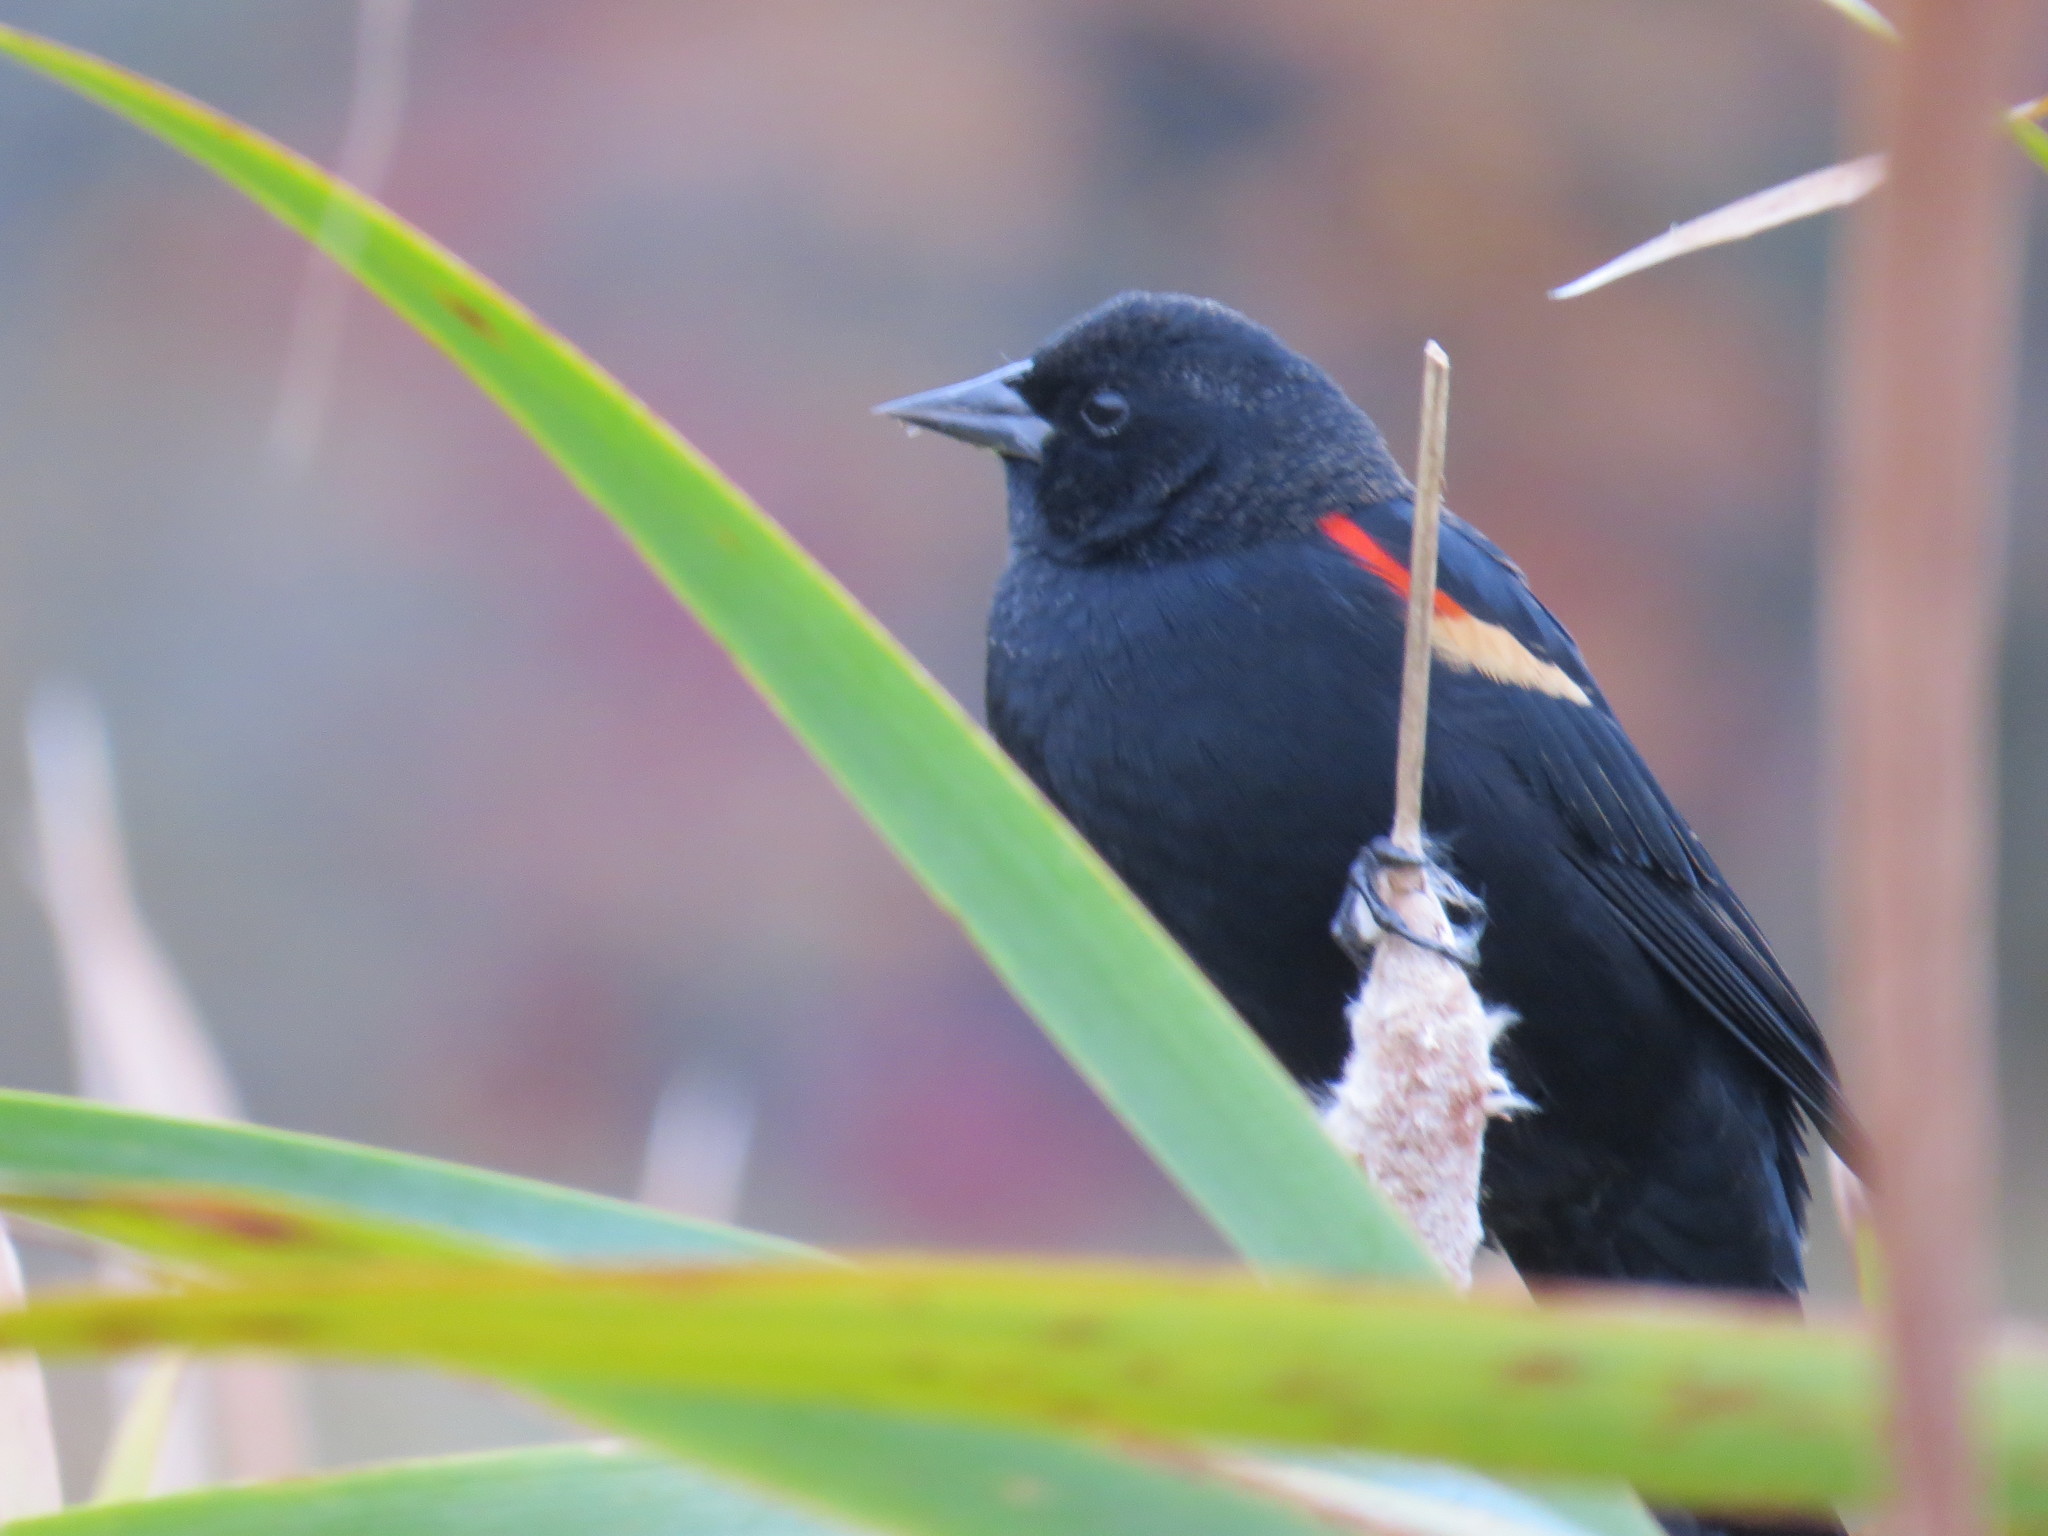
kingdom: Animalia
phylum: Chordata
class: Aves
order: Passeriformes
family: Icteridae
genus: Agelaius
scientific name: Agelaius phoeniceus
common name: Red-winged blackbird
